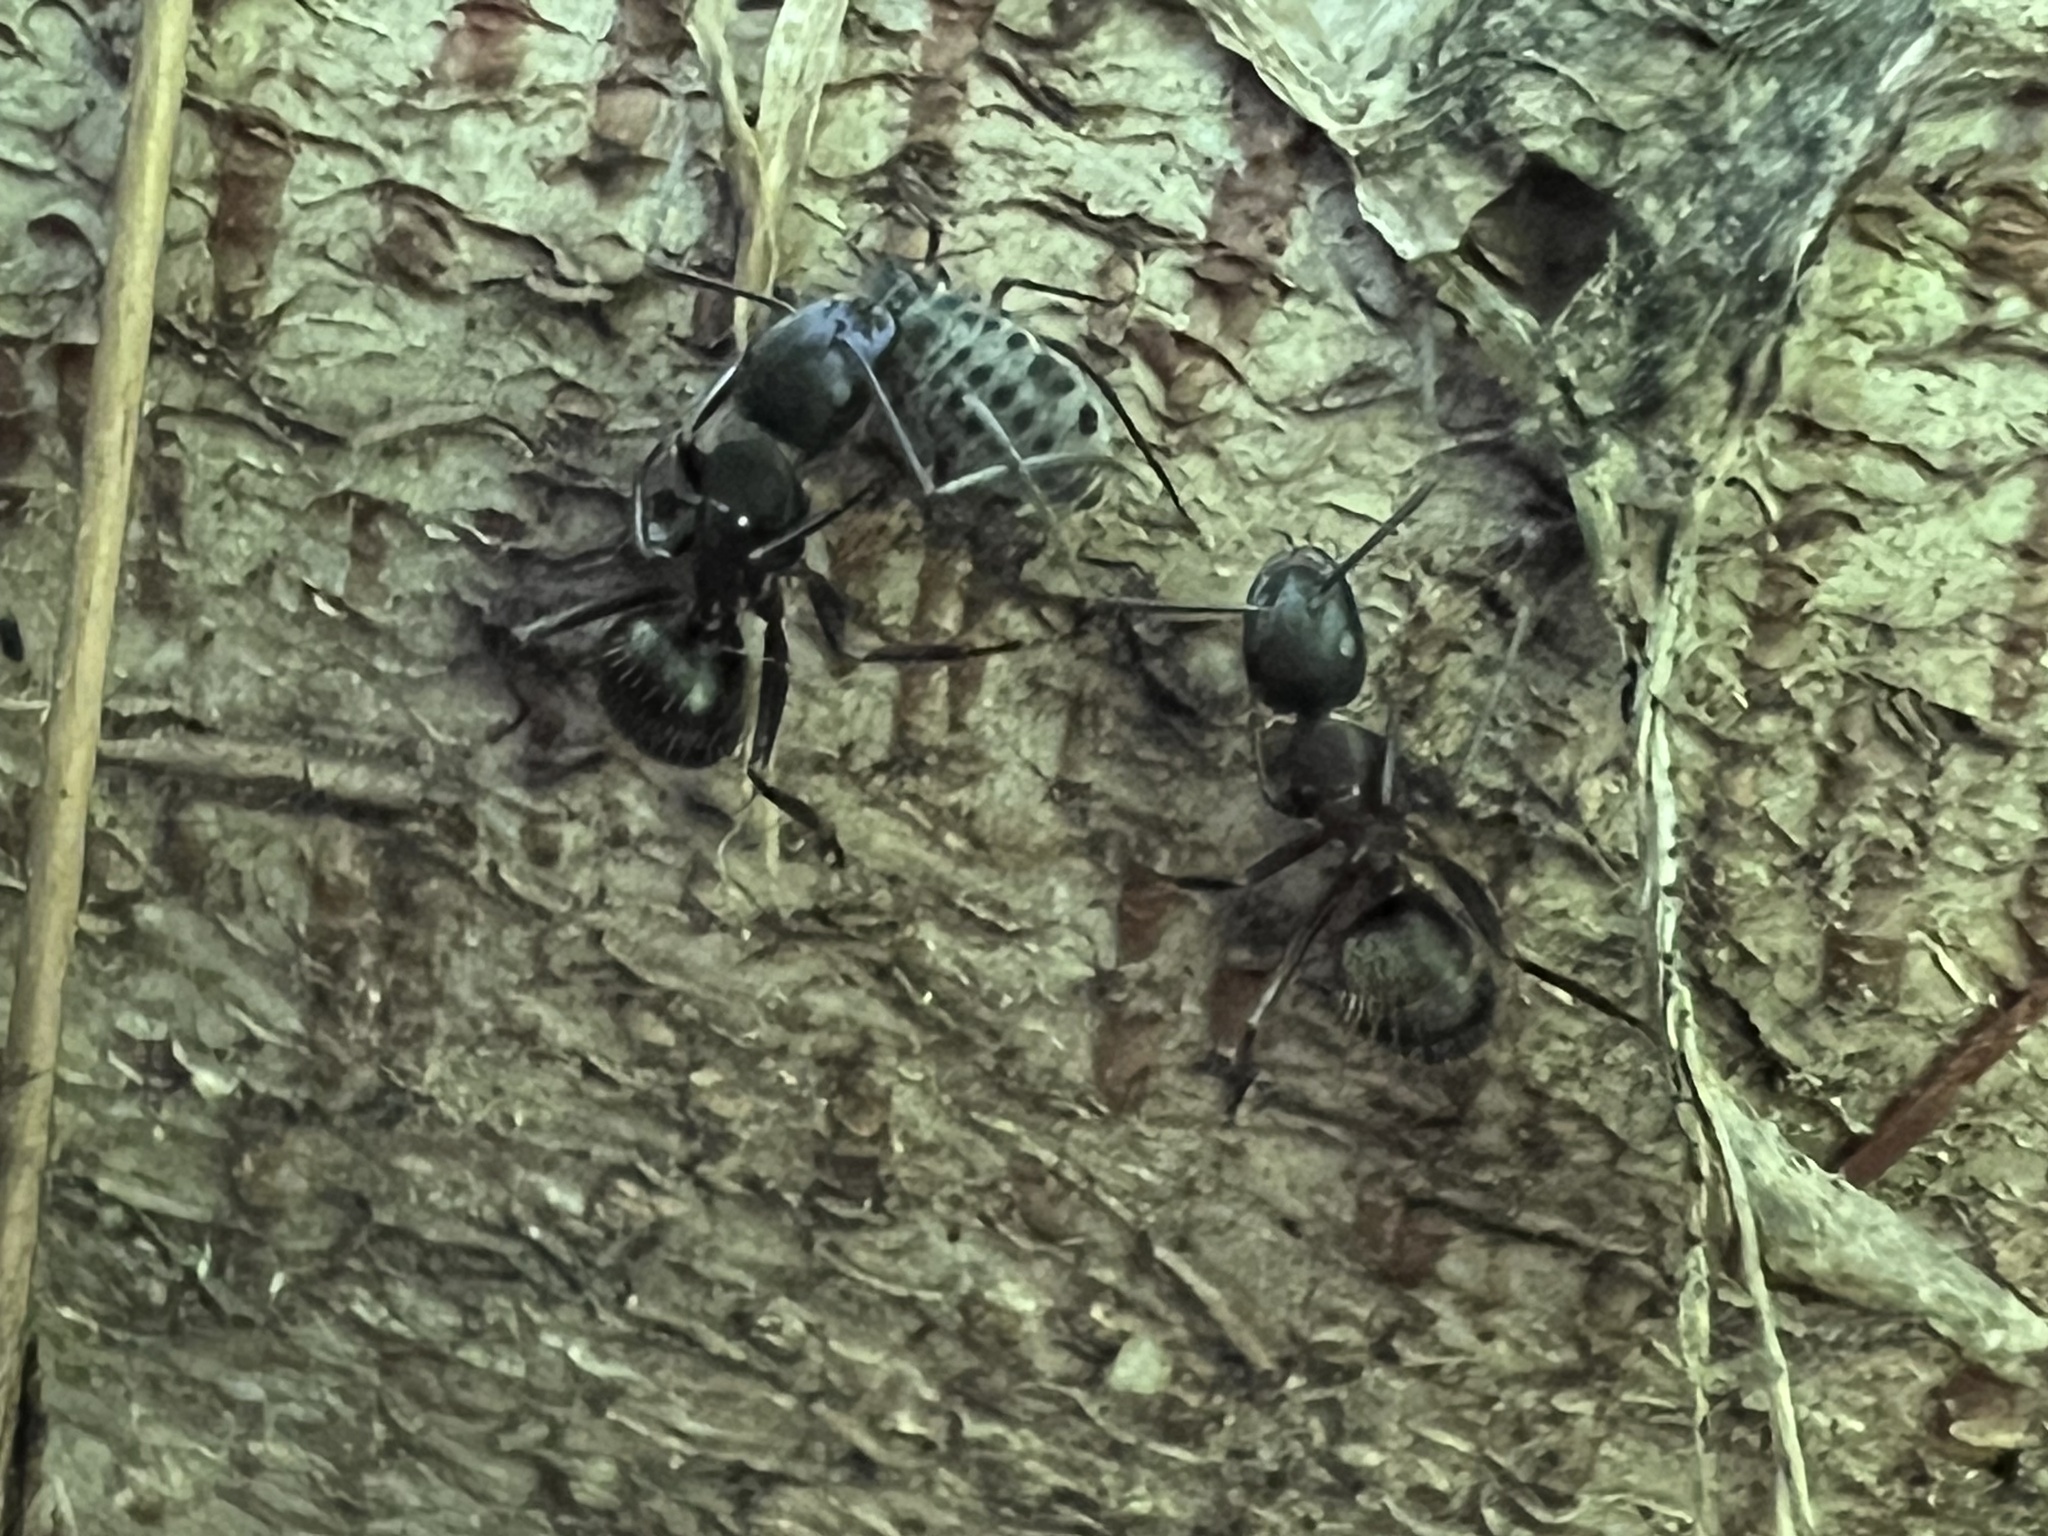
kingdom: Animalia
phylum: Arthropoda
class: Insecta
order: Hymenoptera
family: Formicidae
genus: Camponotus
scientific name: Camponotus chromaiodes
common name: Red carpenter ant
